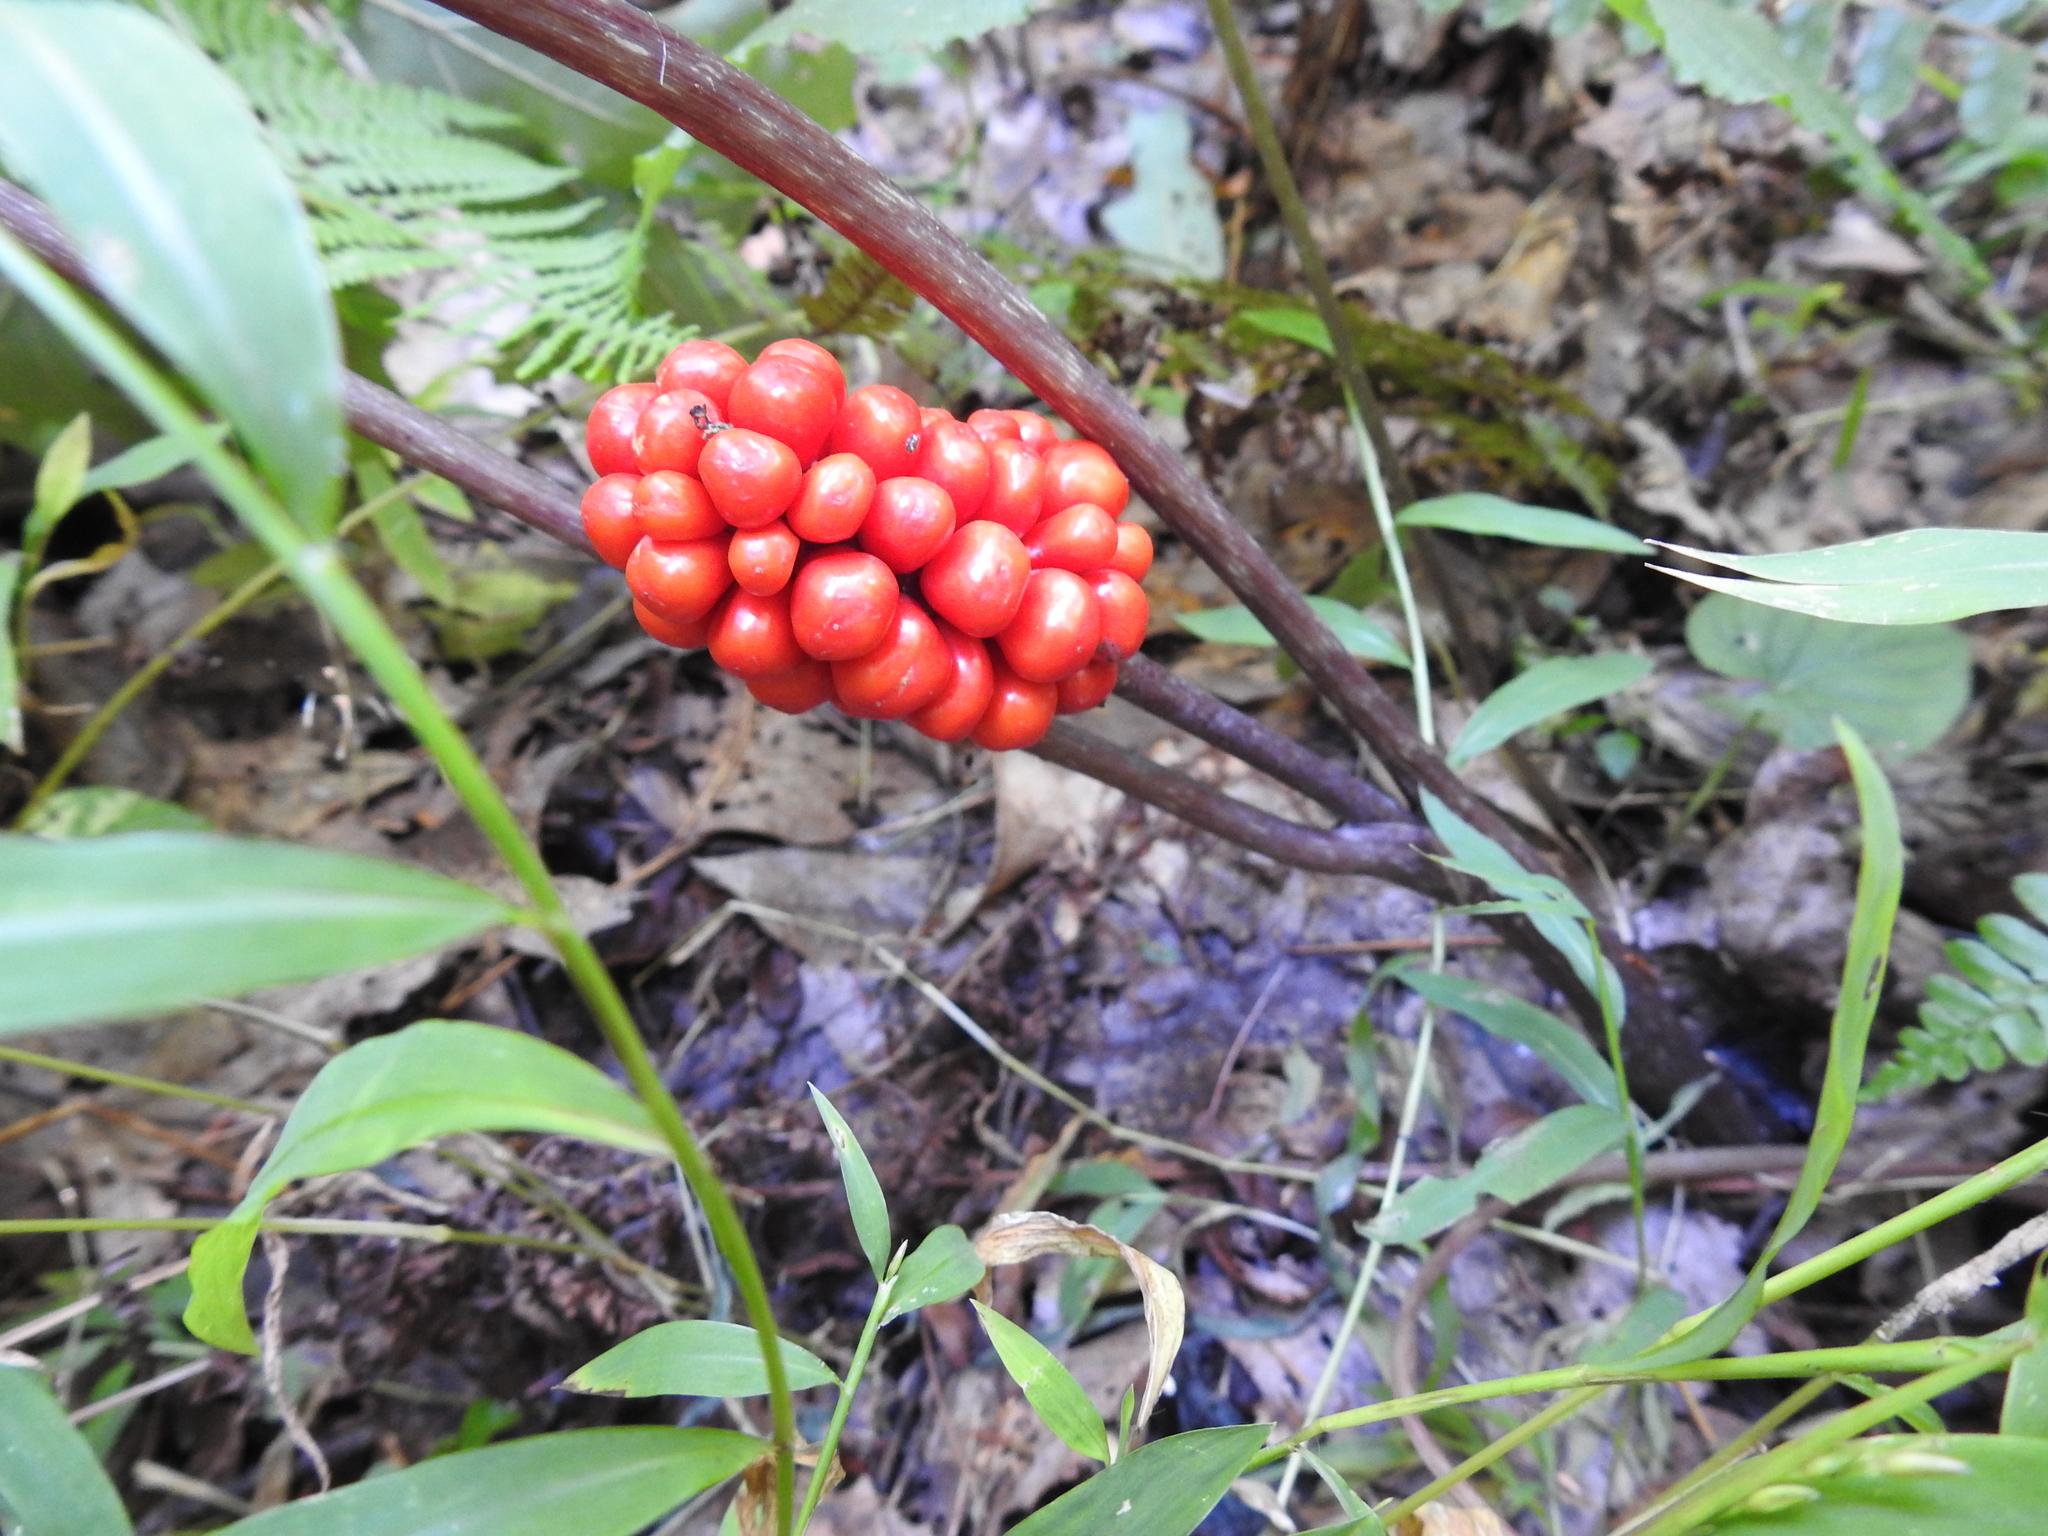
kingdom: Plantae
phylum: Tracheophyta
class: Liliopsida
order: Alismatales
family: Araceae
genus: Arisaema
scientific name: Arisaema triphyllum
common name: Jack-in-the-pulpit
